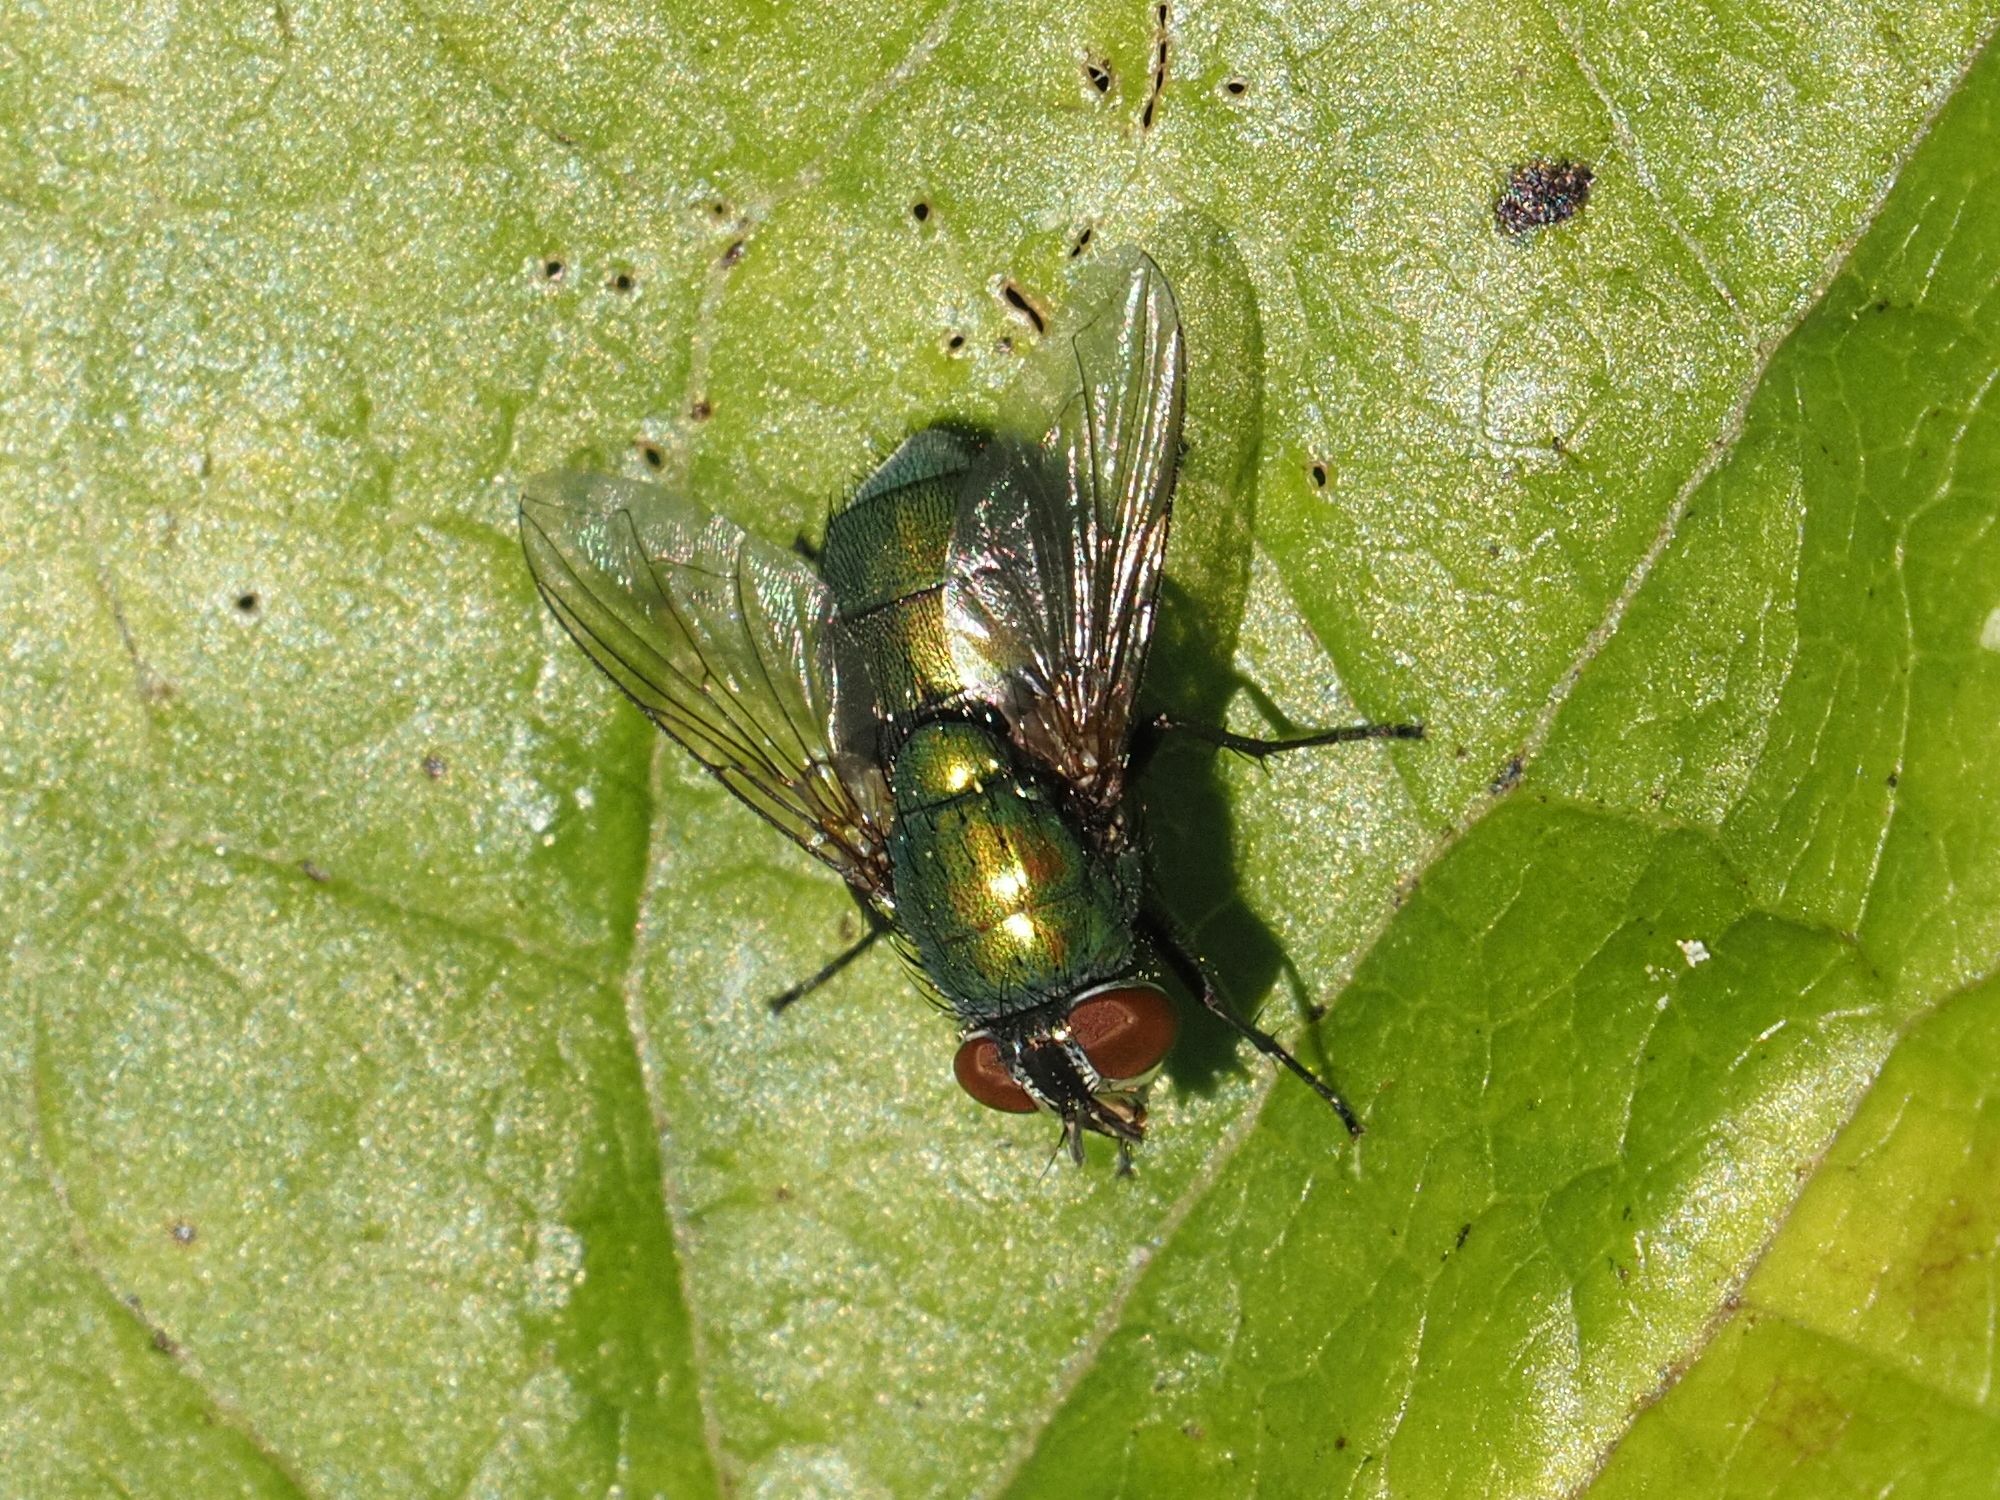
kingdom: Animalia
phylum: Arthropoda
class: Insecta
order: Diptera
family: Calliphoridae
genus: Lucilia
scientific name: Lucilia
